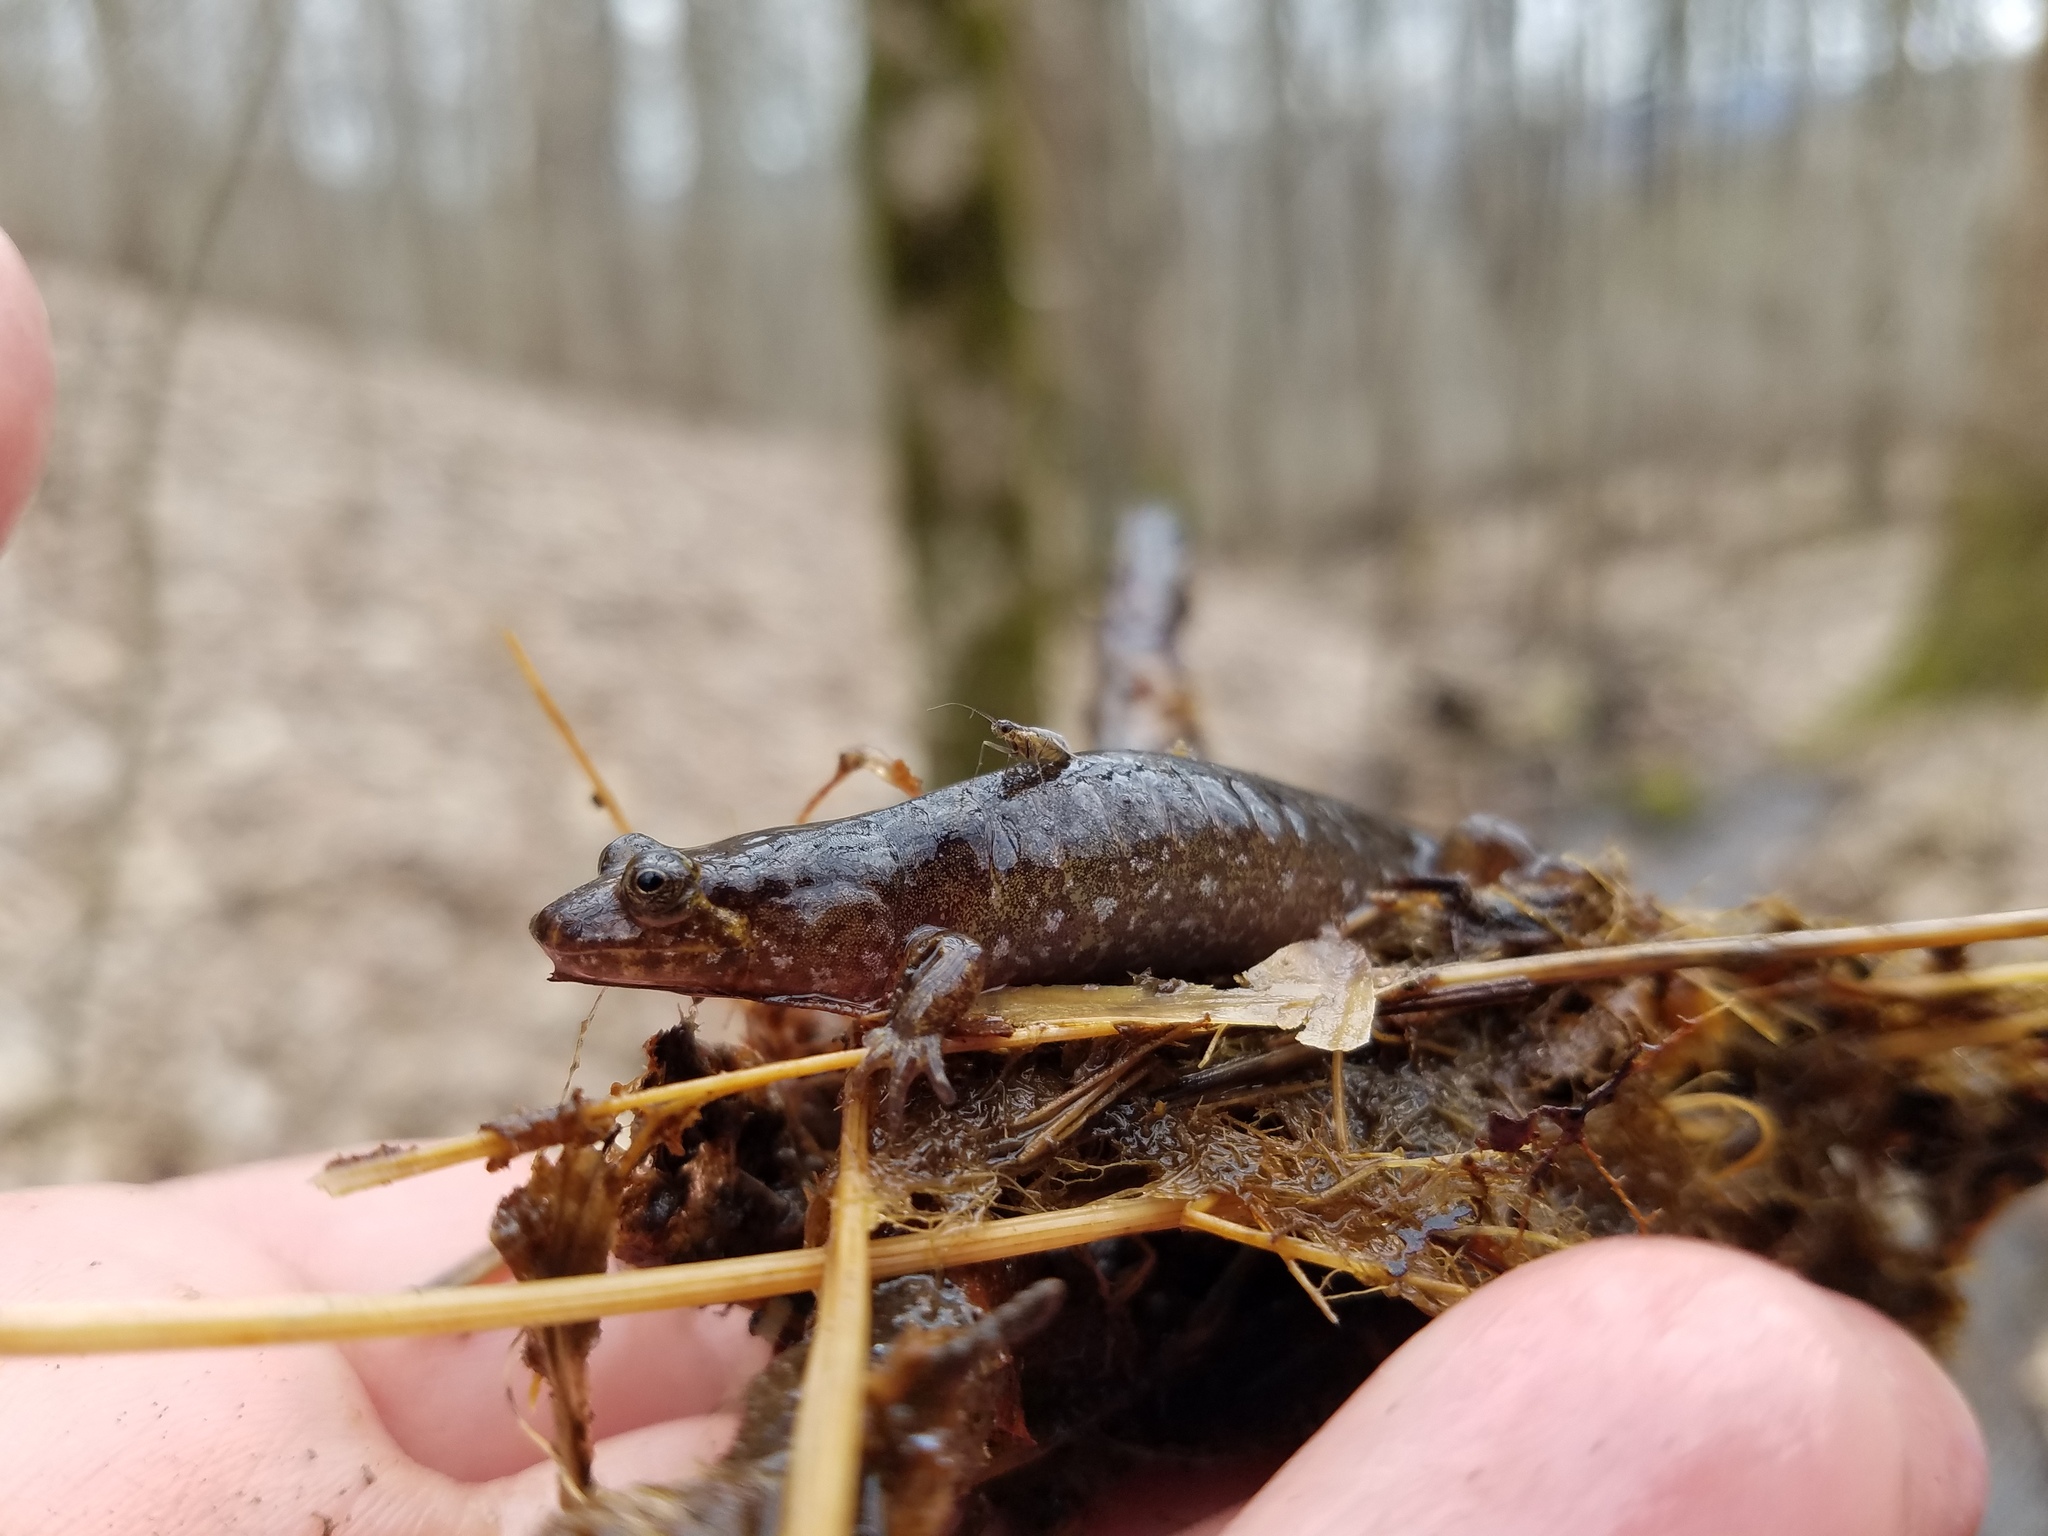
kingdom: Animalia
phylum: Chordata
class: Amphibia
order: Caudata
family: Plethodontidae
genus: Desmognathus
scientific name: Desmognathus monticola
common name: Seal salamander
